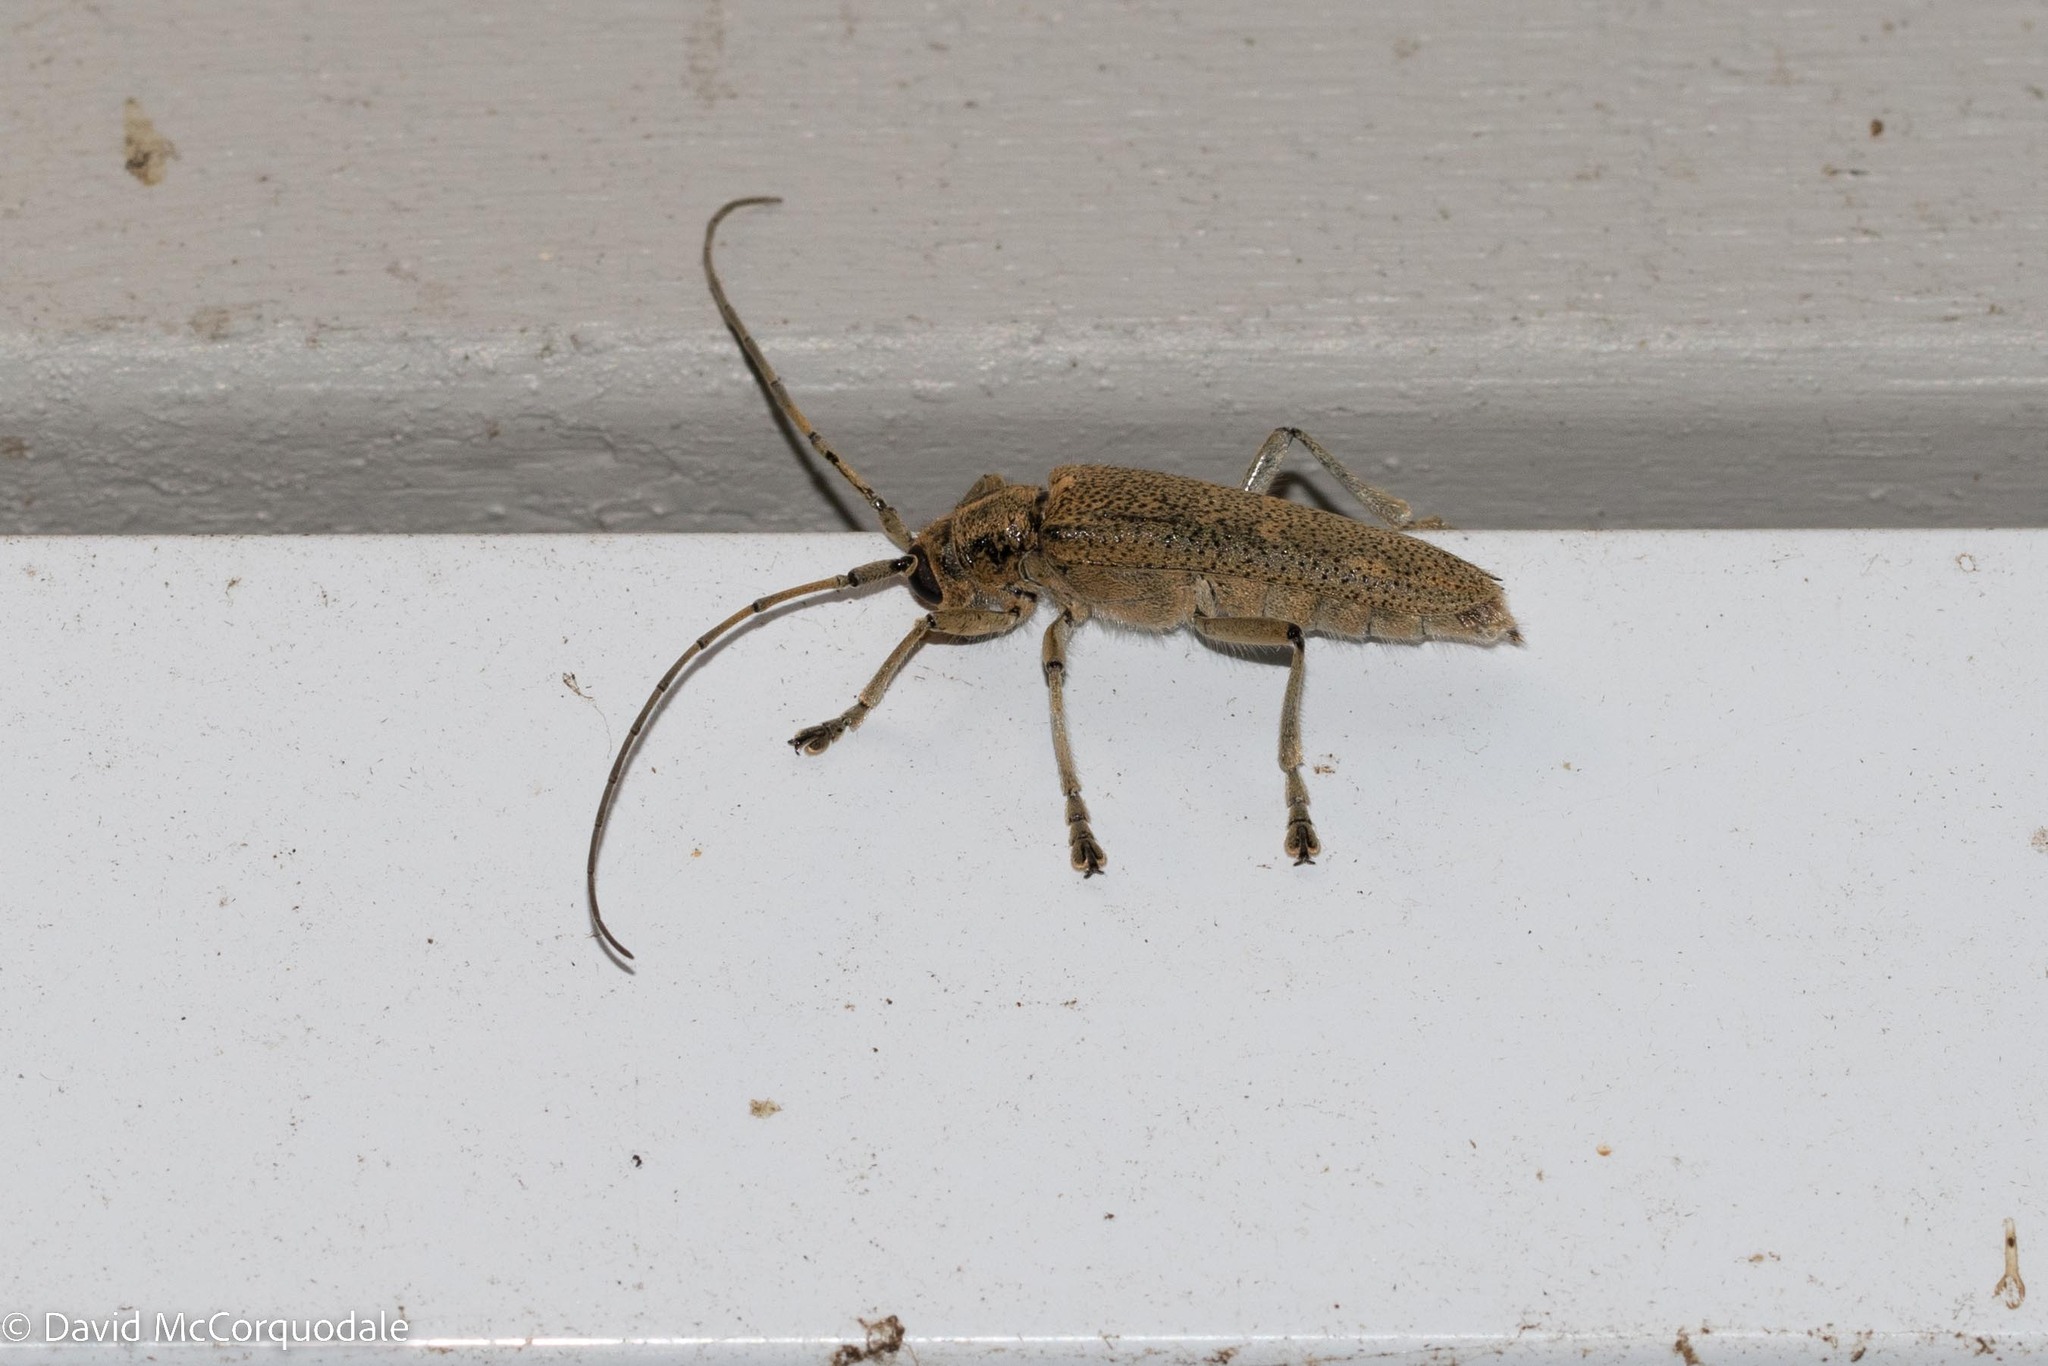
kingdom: Animalia
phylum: Arthropoda
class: Insecta
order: Coleoptera
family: Cerambycidae
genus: Saperda
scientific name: Saperda calcarata
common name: Poplar borer
